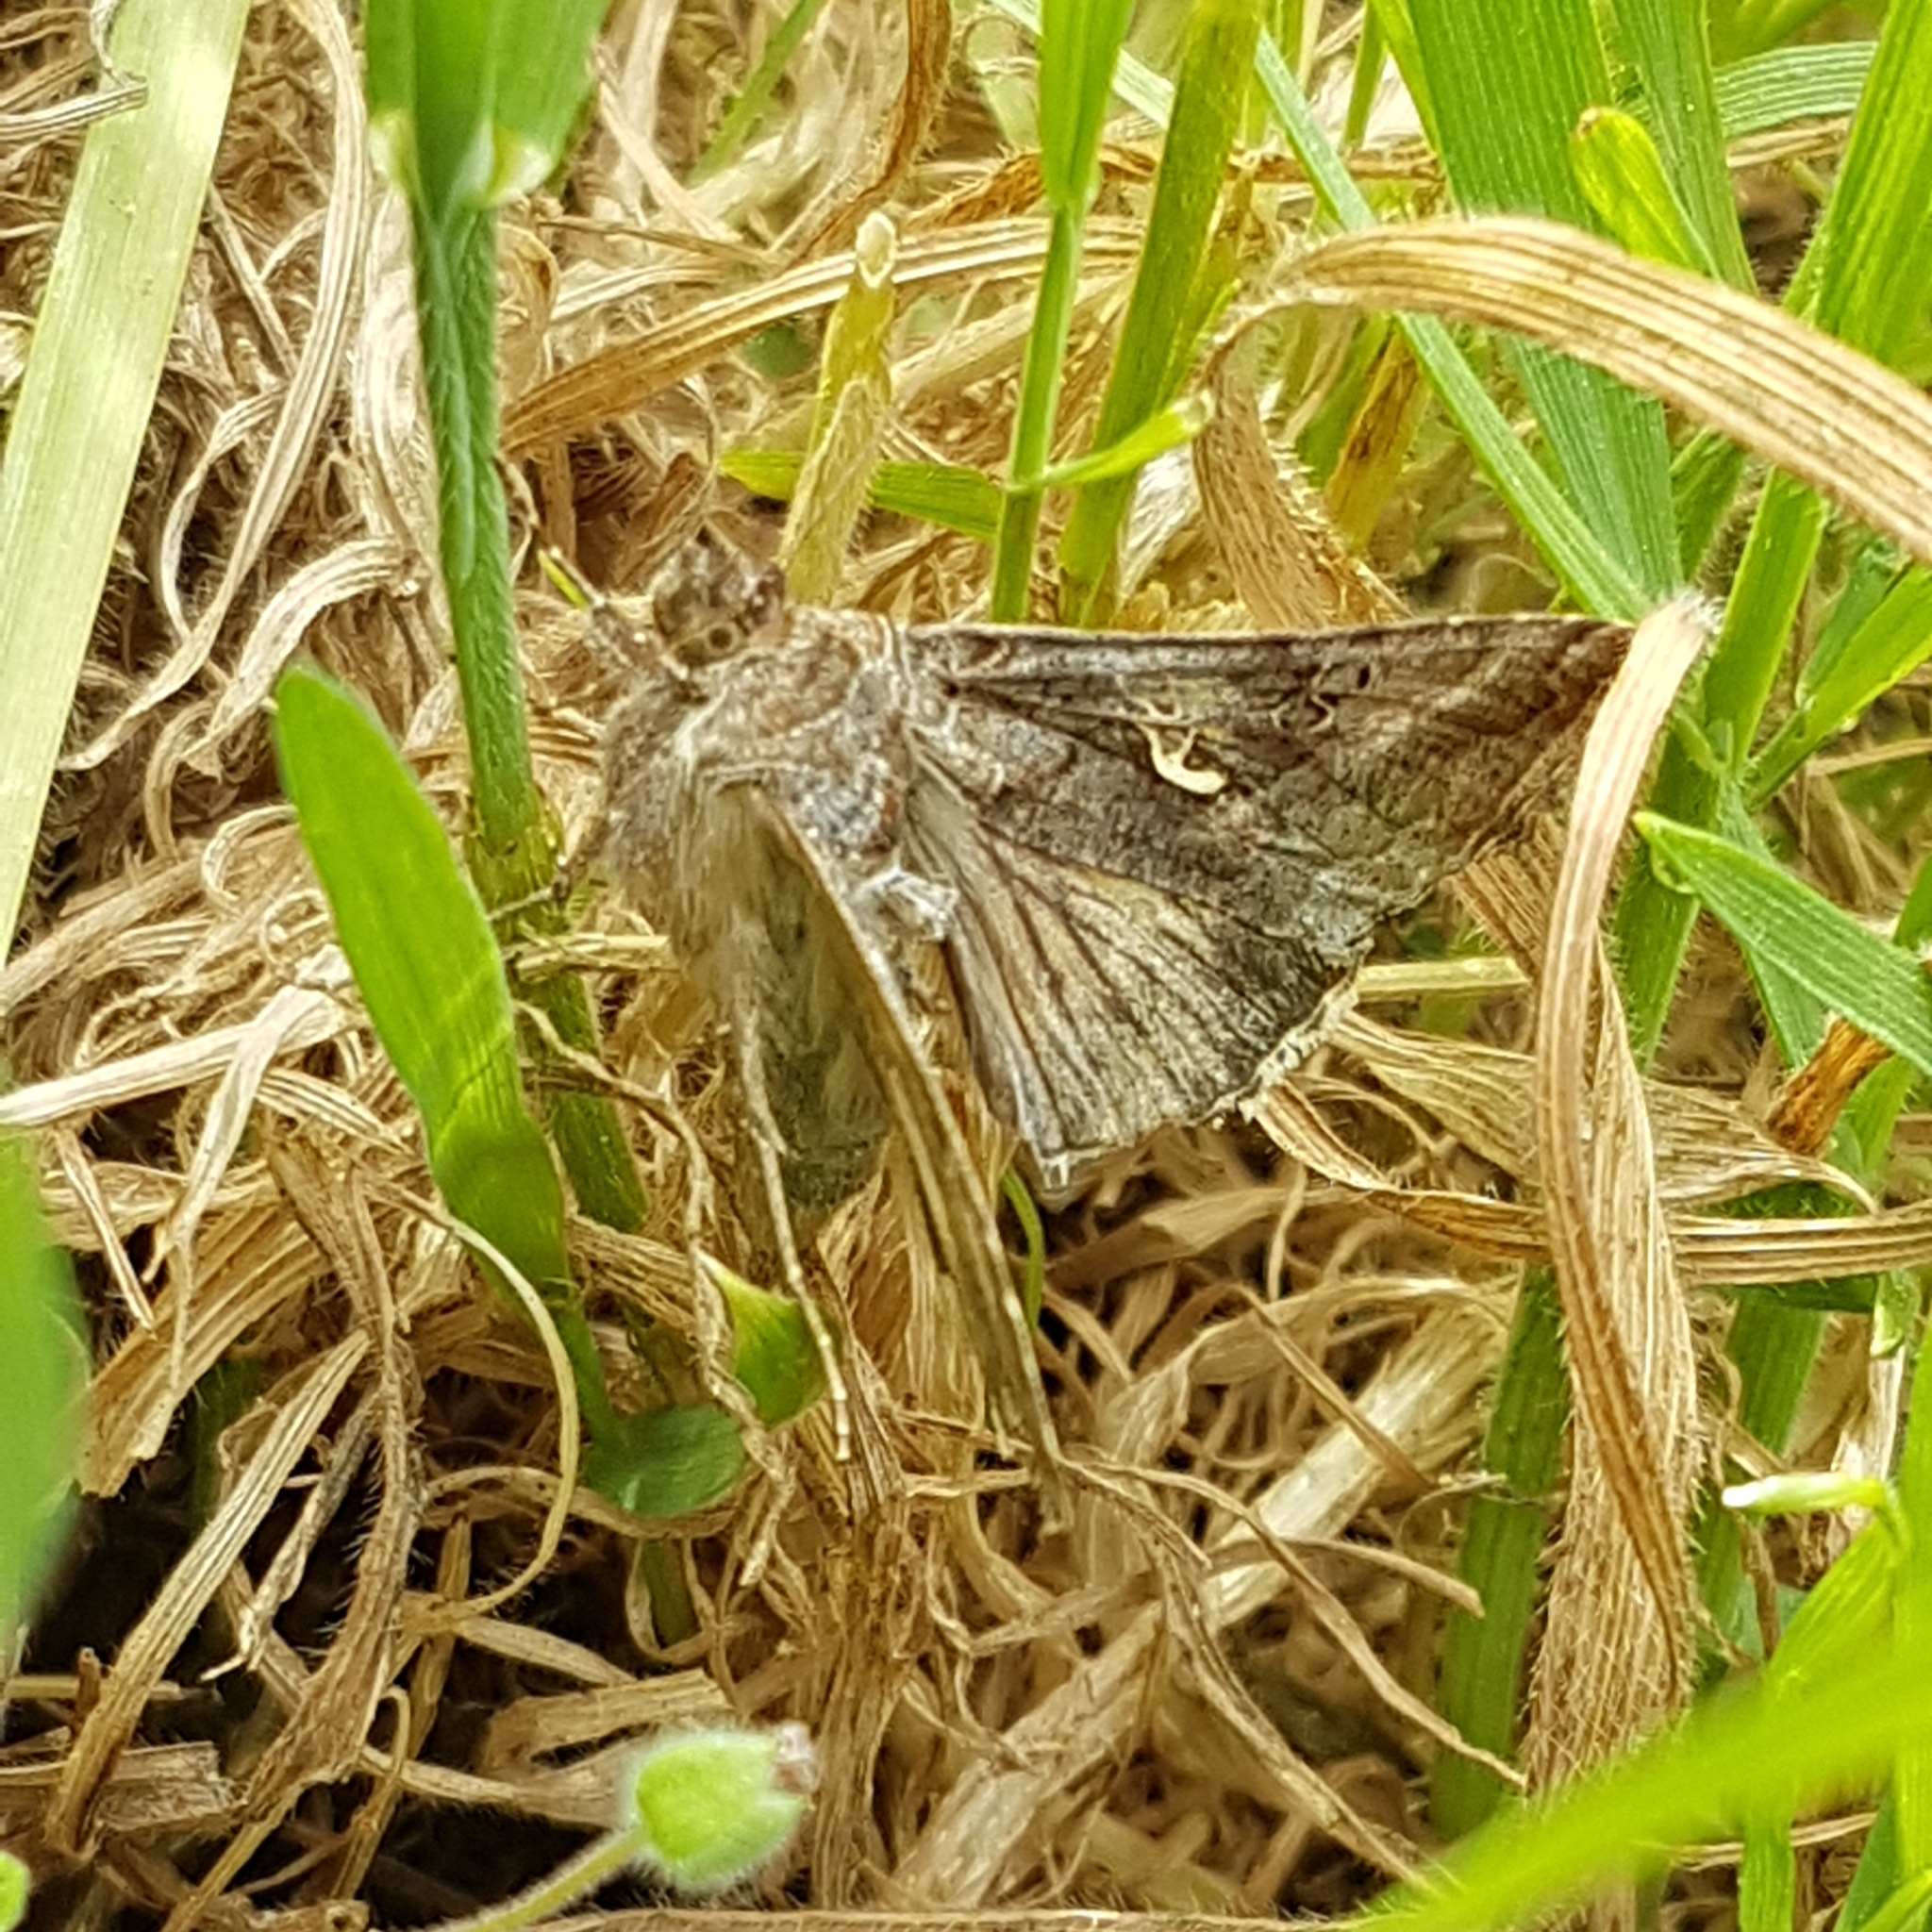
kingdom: Animalia
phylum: Arthropoda
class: Insecta
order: Lepidoptera
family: Noctuidae
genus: Autographa
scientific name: Autographa gamma
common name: Silver y
